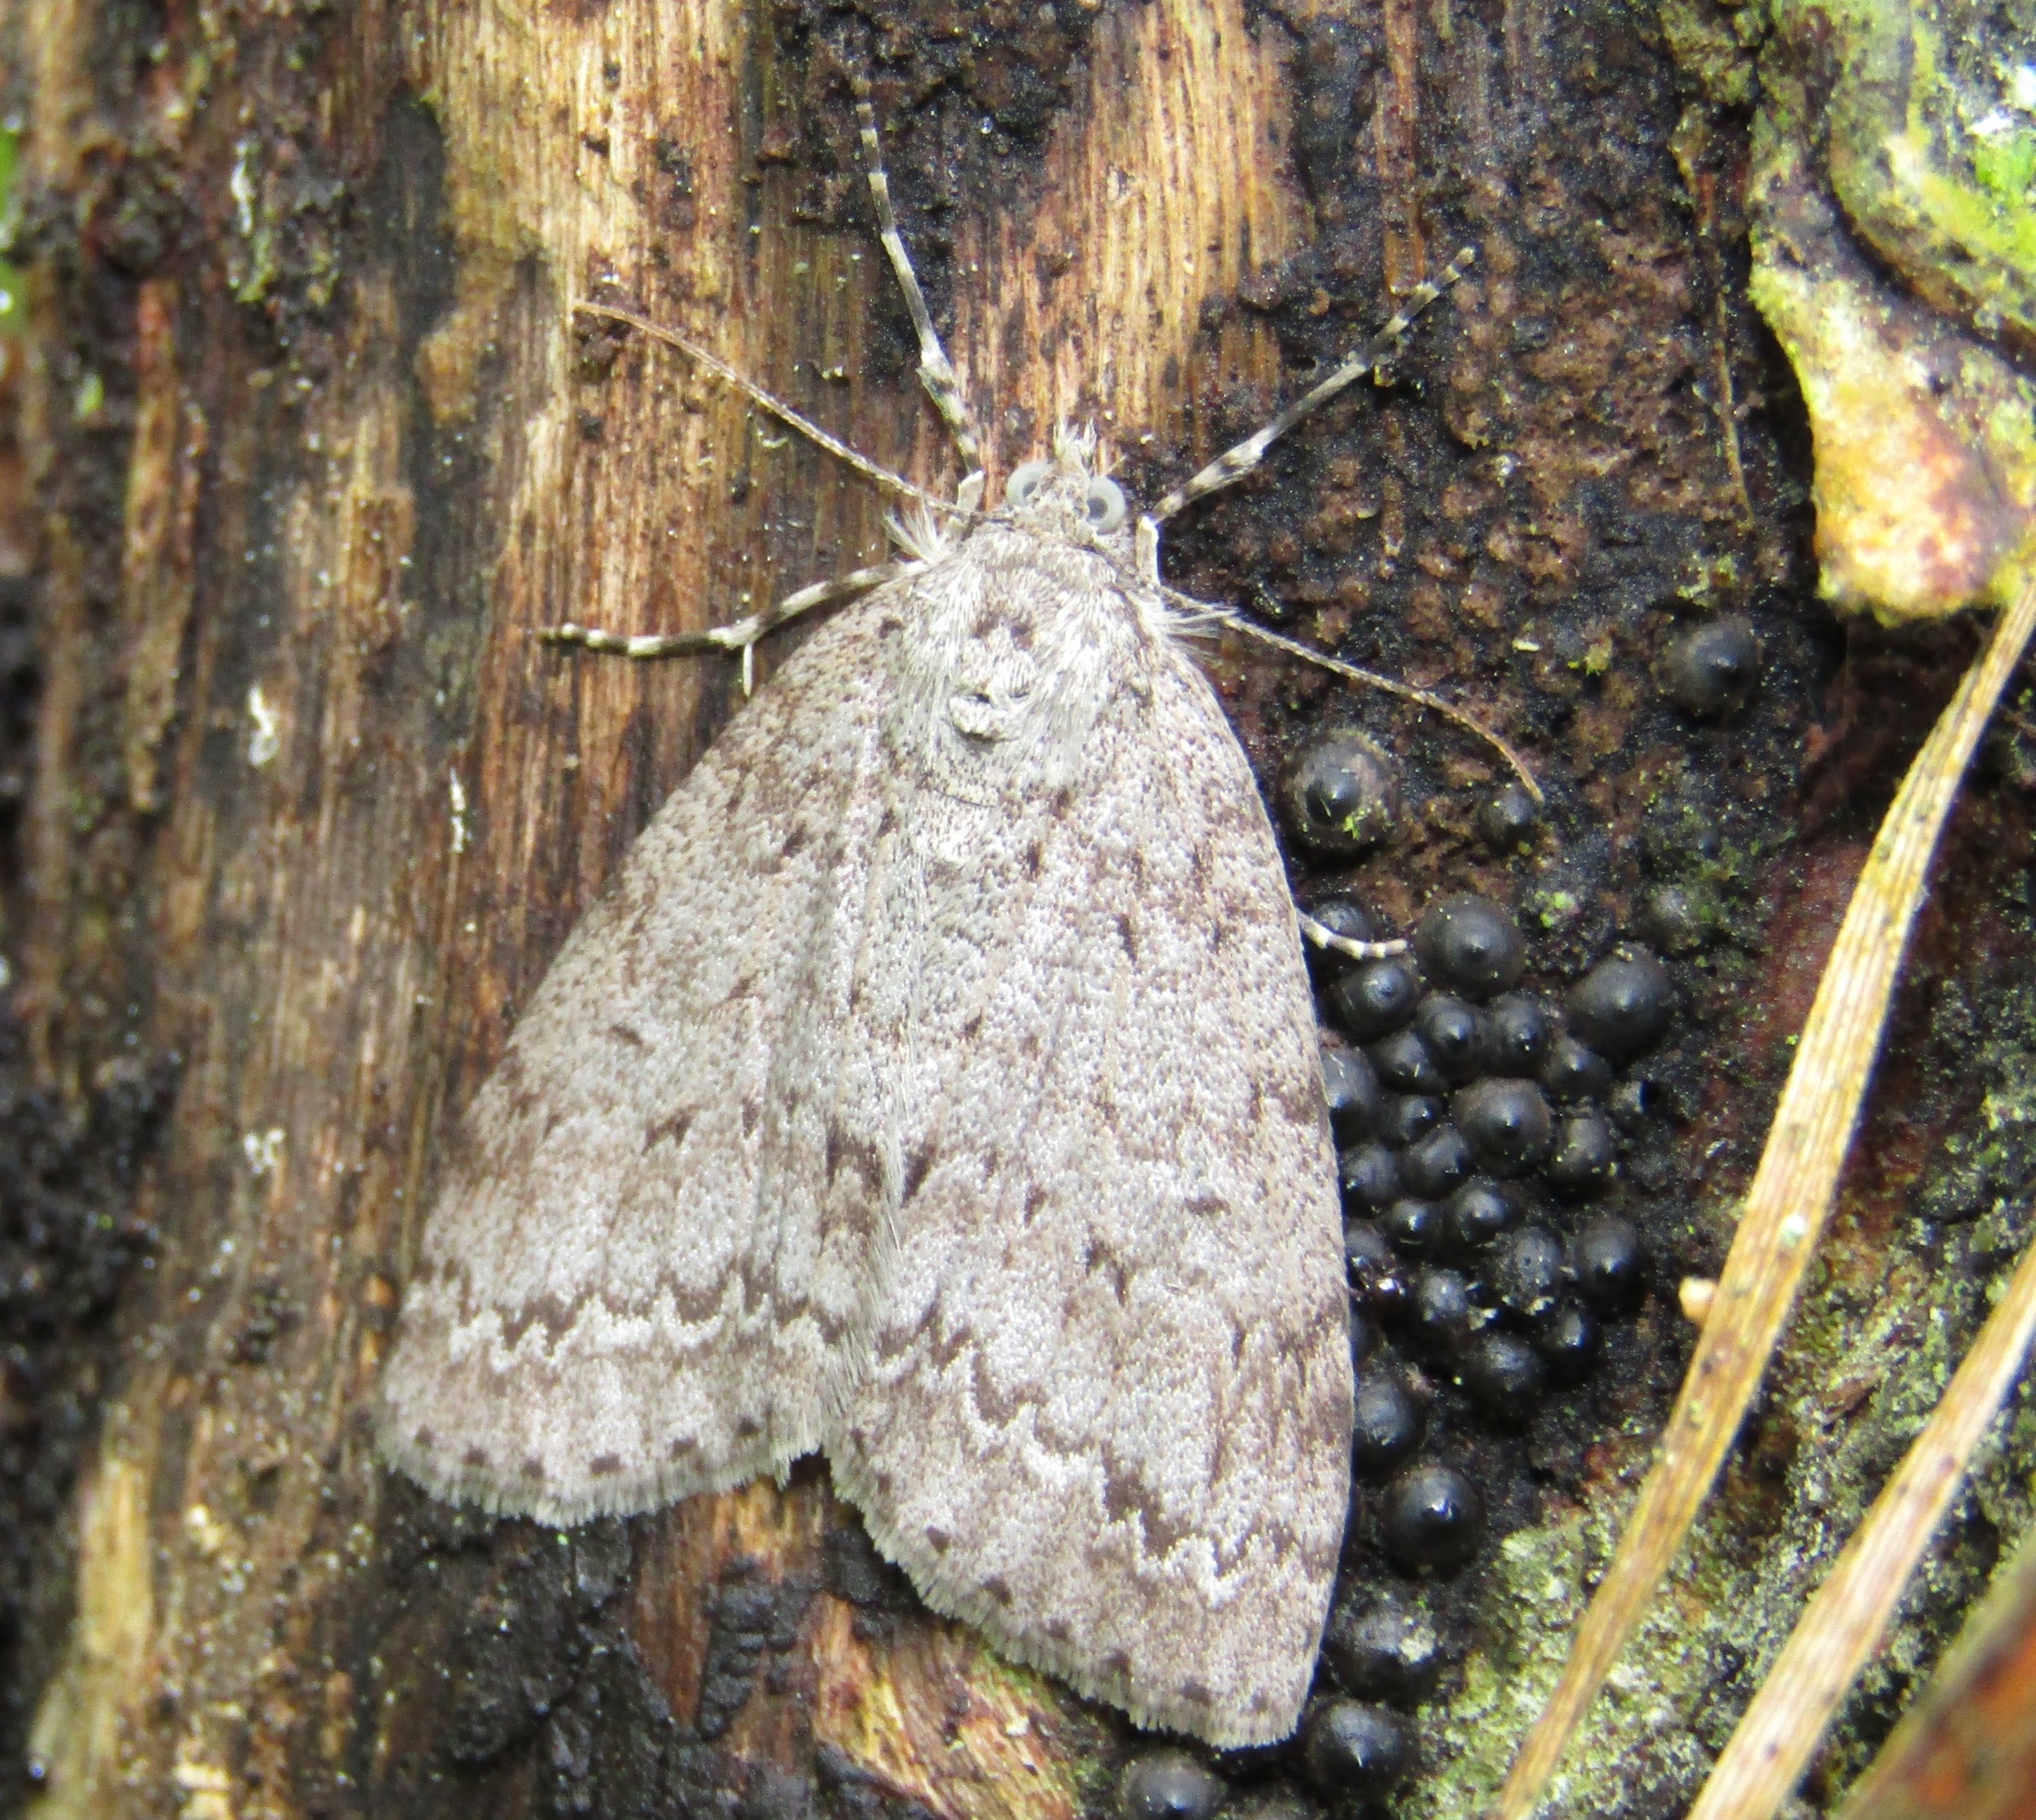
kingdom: Animalia
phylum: Arthropoda
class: Insecta
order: Lepidoptera
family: Geometridae
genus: Pseudocoremia
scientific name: Pseudocoremia fenerata
